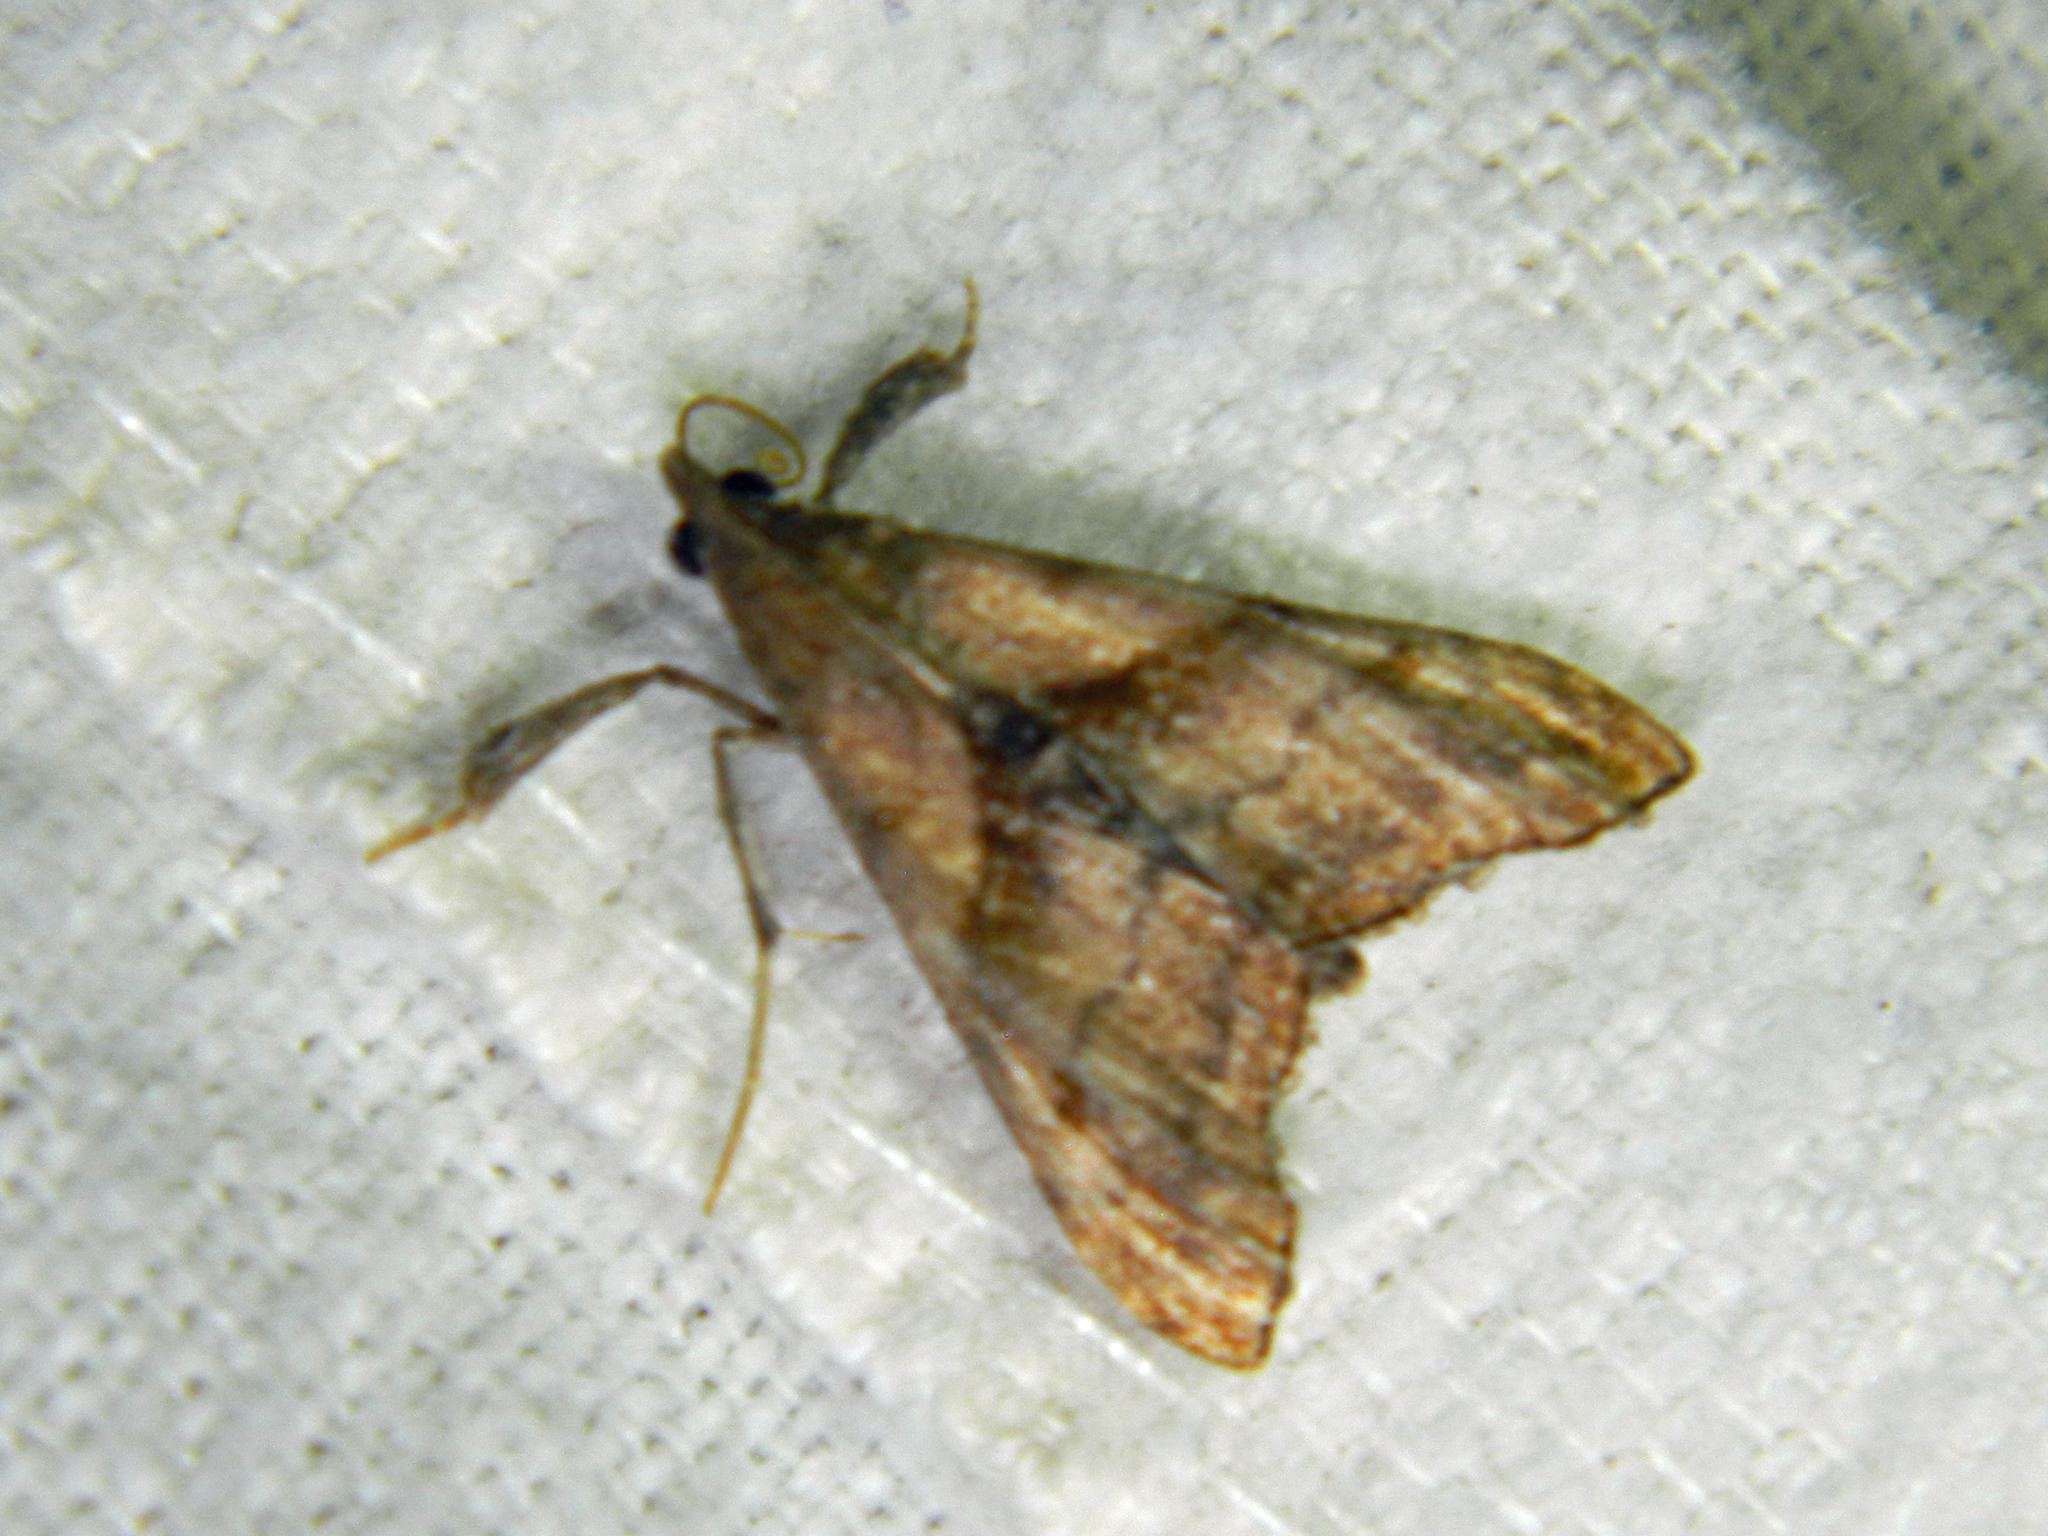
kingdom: Animalia
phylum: Arthropoda
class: Insecta
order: Lepidoptera
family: Erebidae
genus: Palthis
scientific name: Palthis angulalis
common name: Dark-spotted palthis moth
